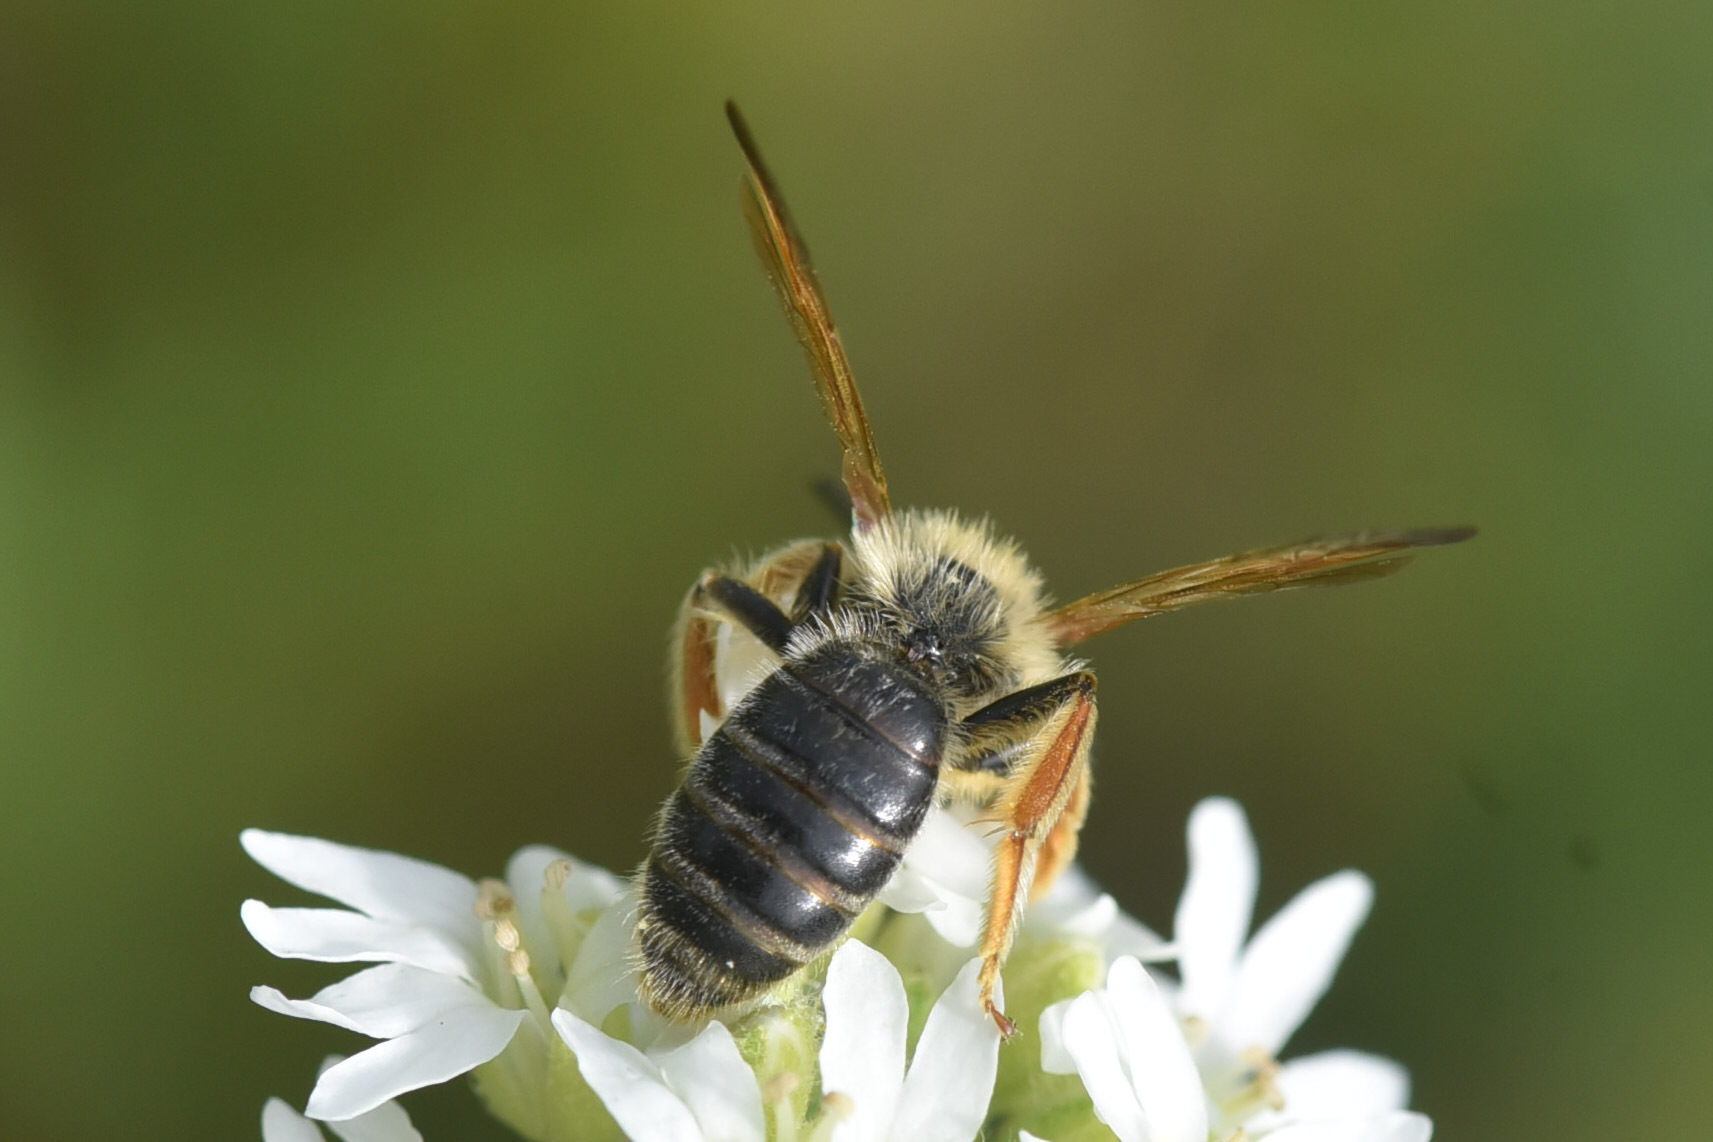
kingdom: Animalia
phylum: Arthropoda
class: Insecta
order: Hymenoptera
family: Andrenidae
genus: Andrena
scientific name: Andrena prunorum
